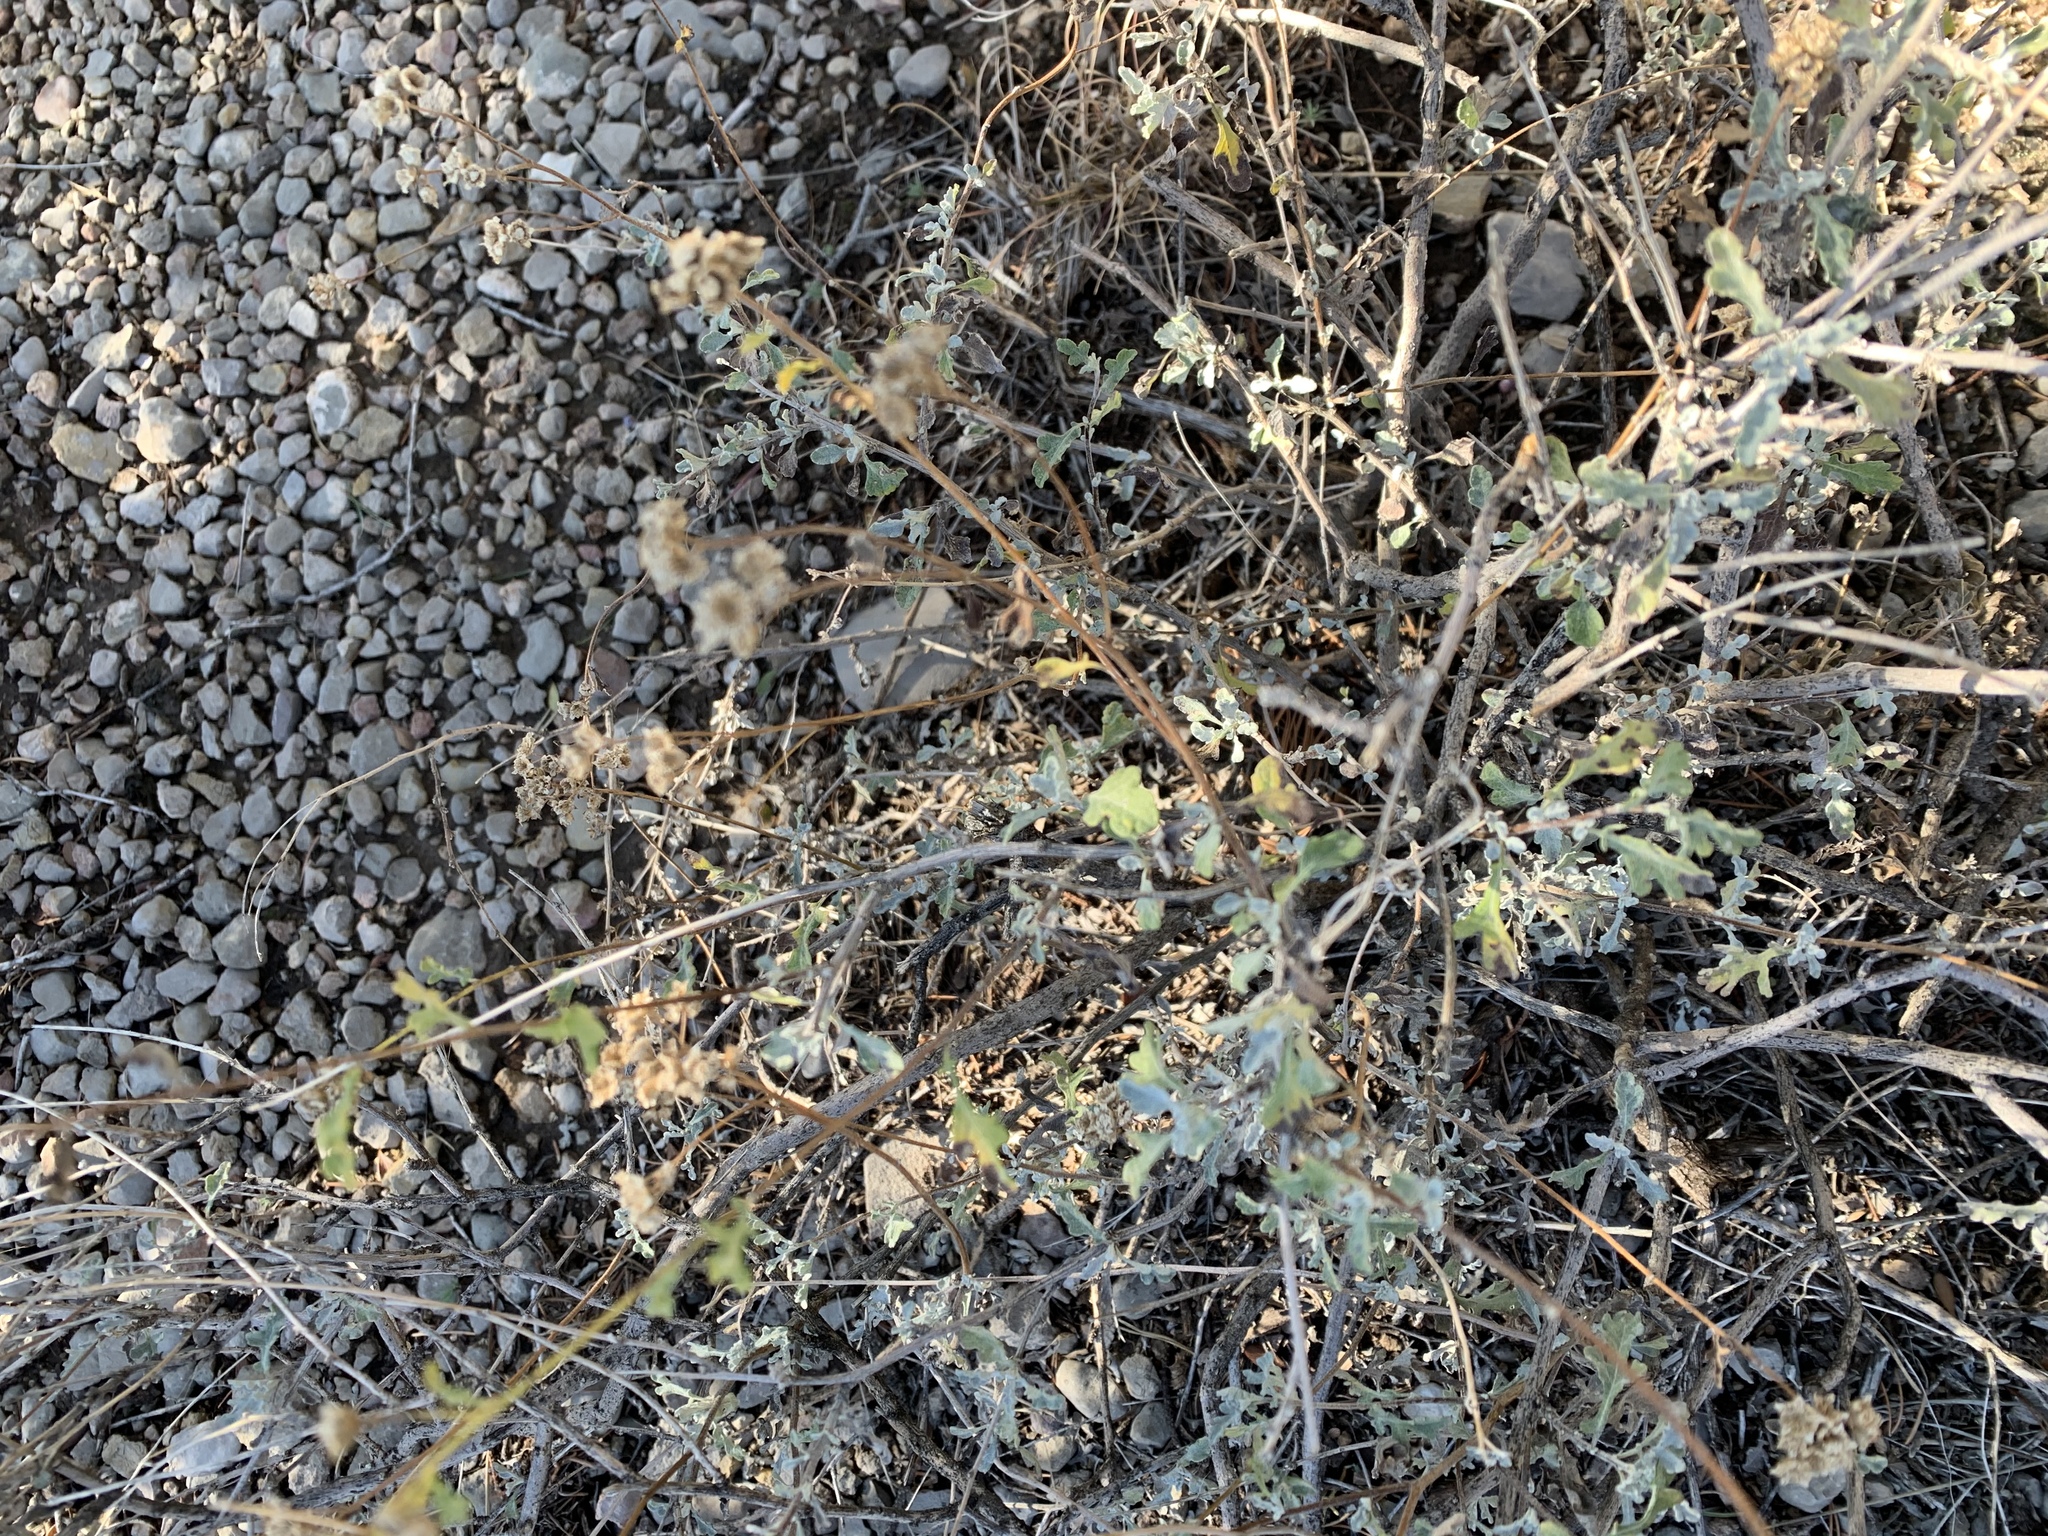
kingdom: Plantae
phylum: Tracheophyta
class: Magnoliopsida
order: Asterales
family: Asteraceae
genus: Parthenium
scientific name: Parthenium incanum
